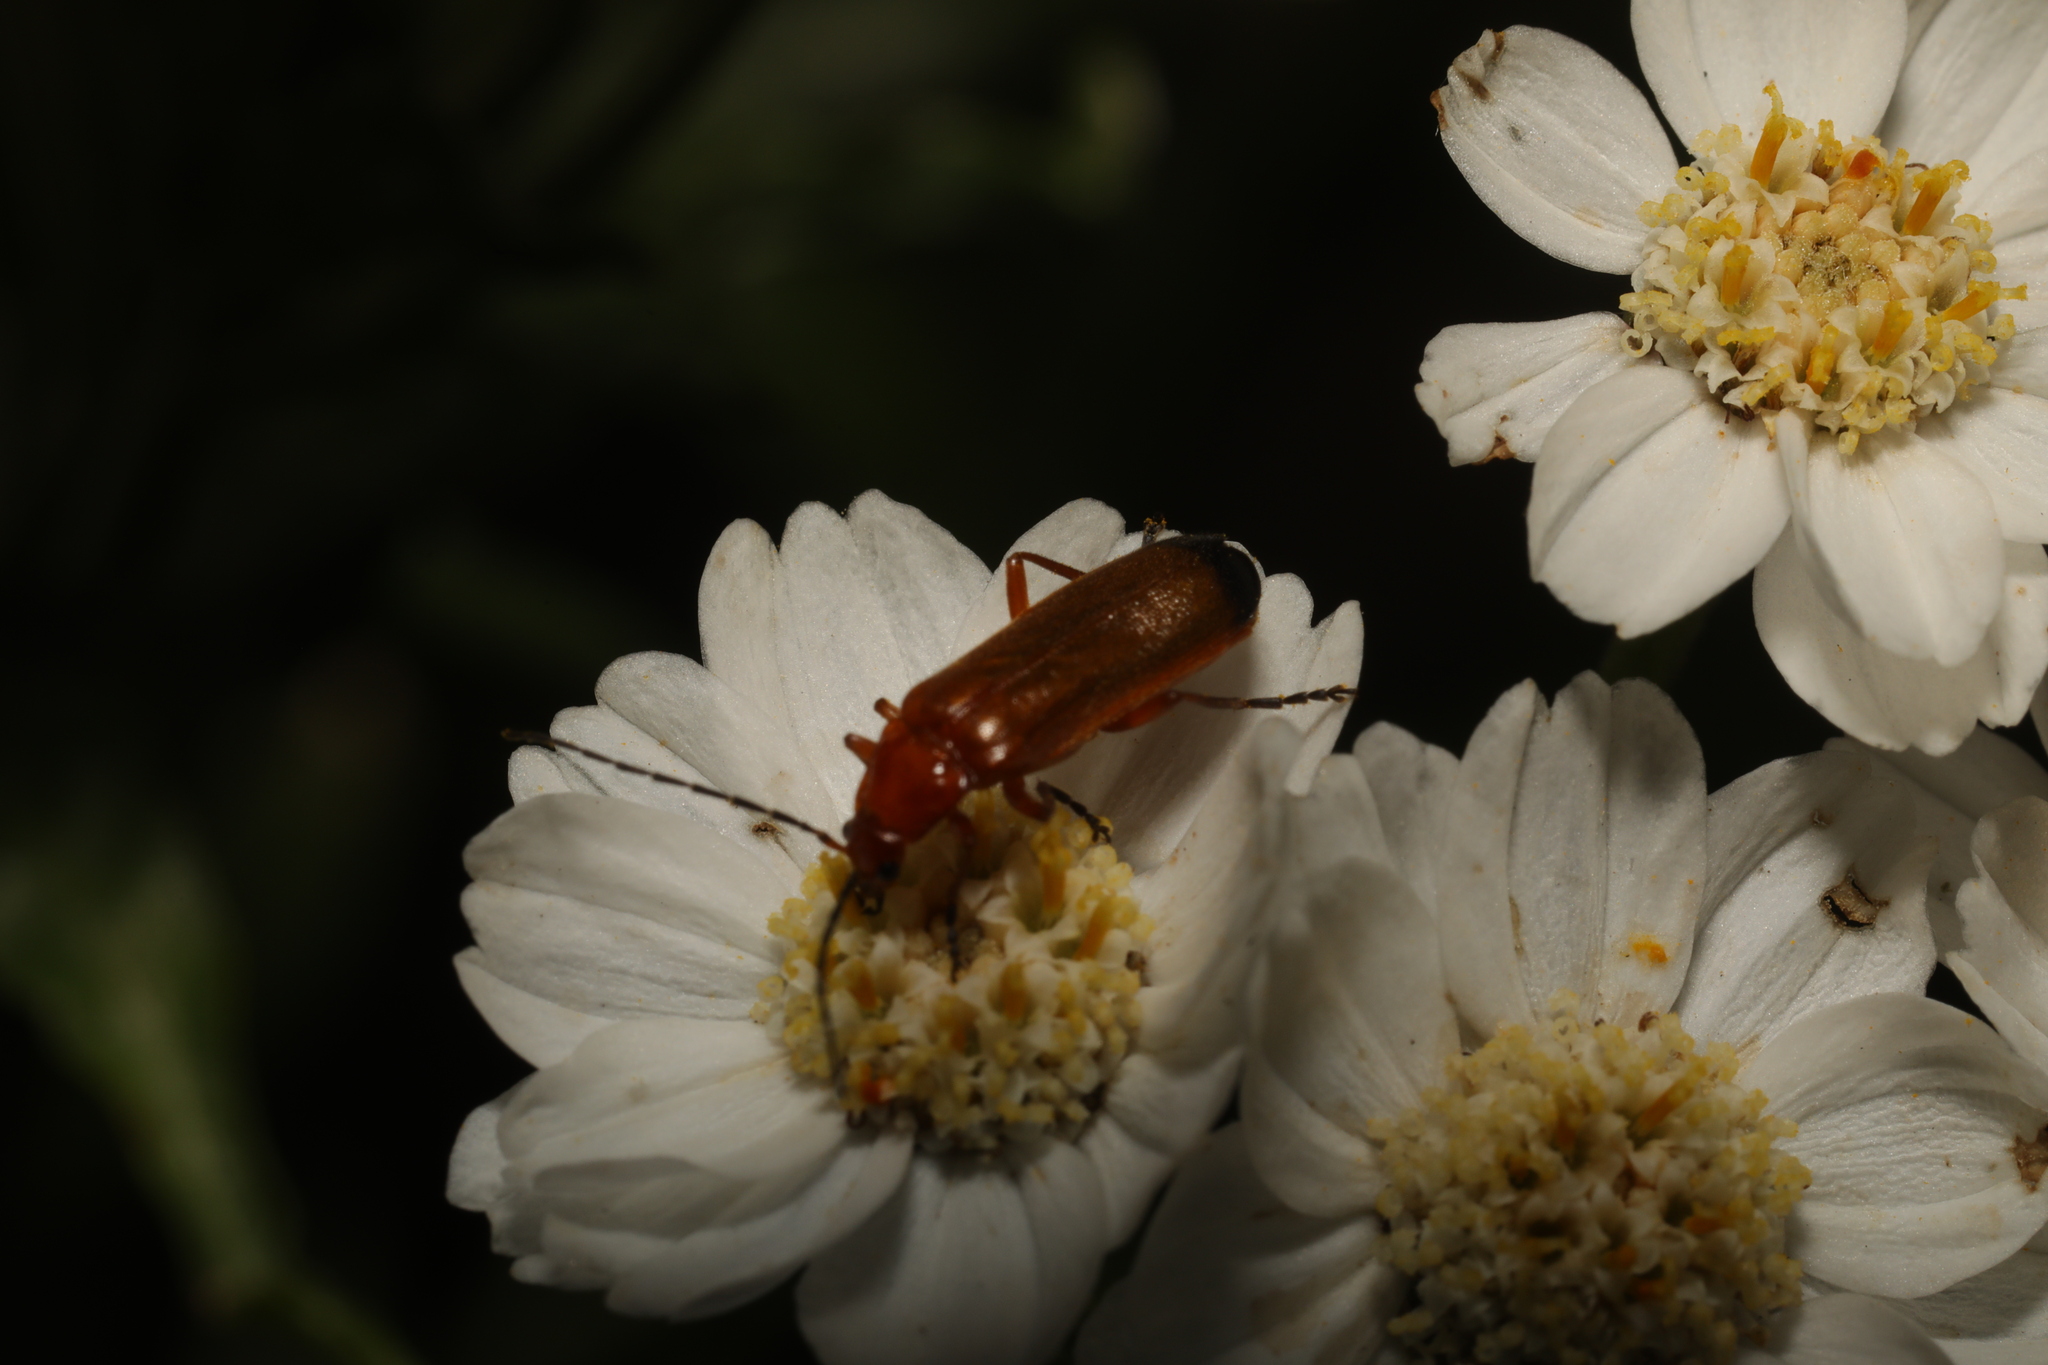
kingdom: Animalia
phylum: Arthropoda
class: Insecta
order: Coleoptera
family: Cantharidae
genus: Rhagonycha
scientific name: Rhagonycha fulva
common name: Common red soldier beetle
